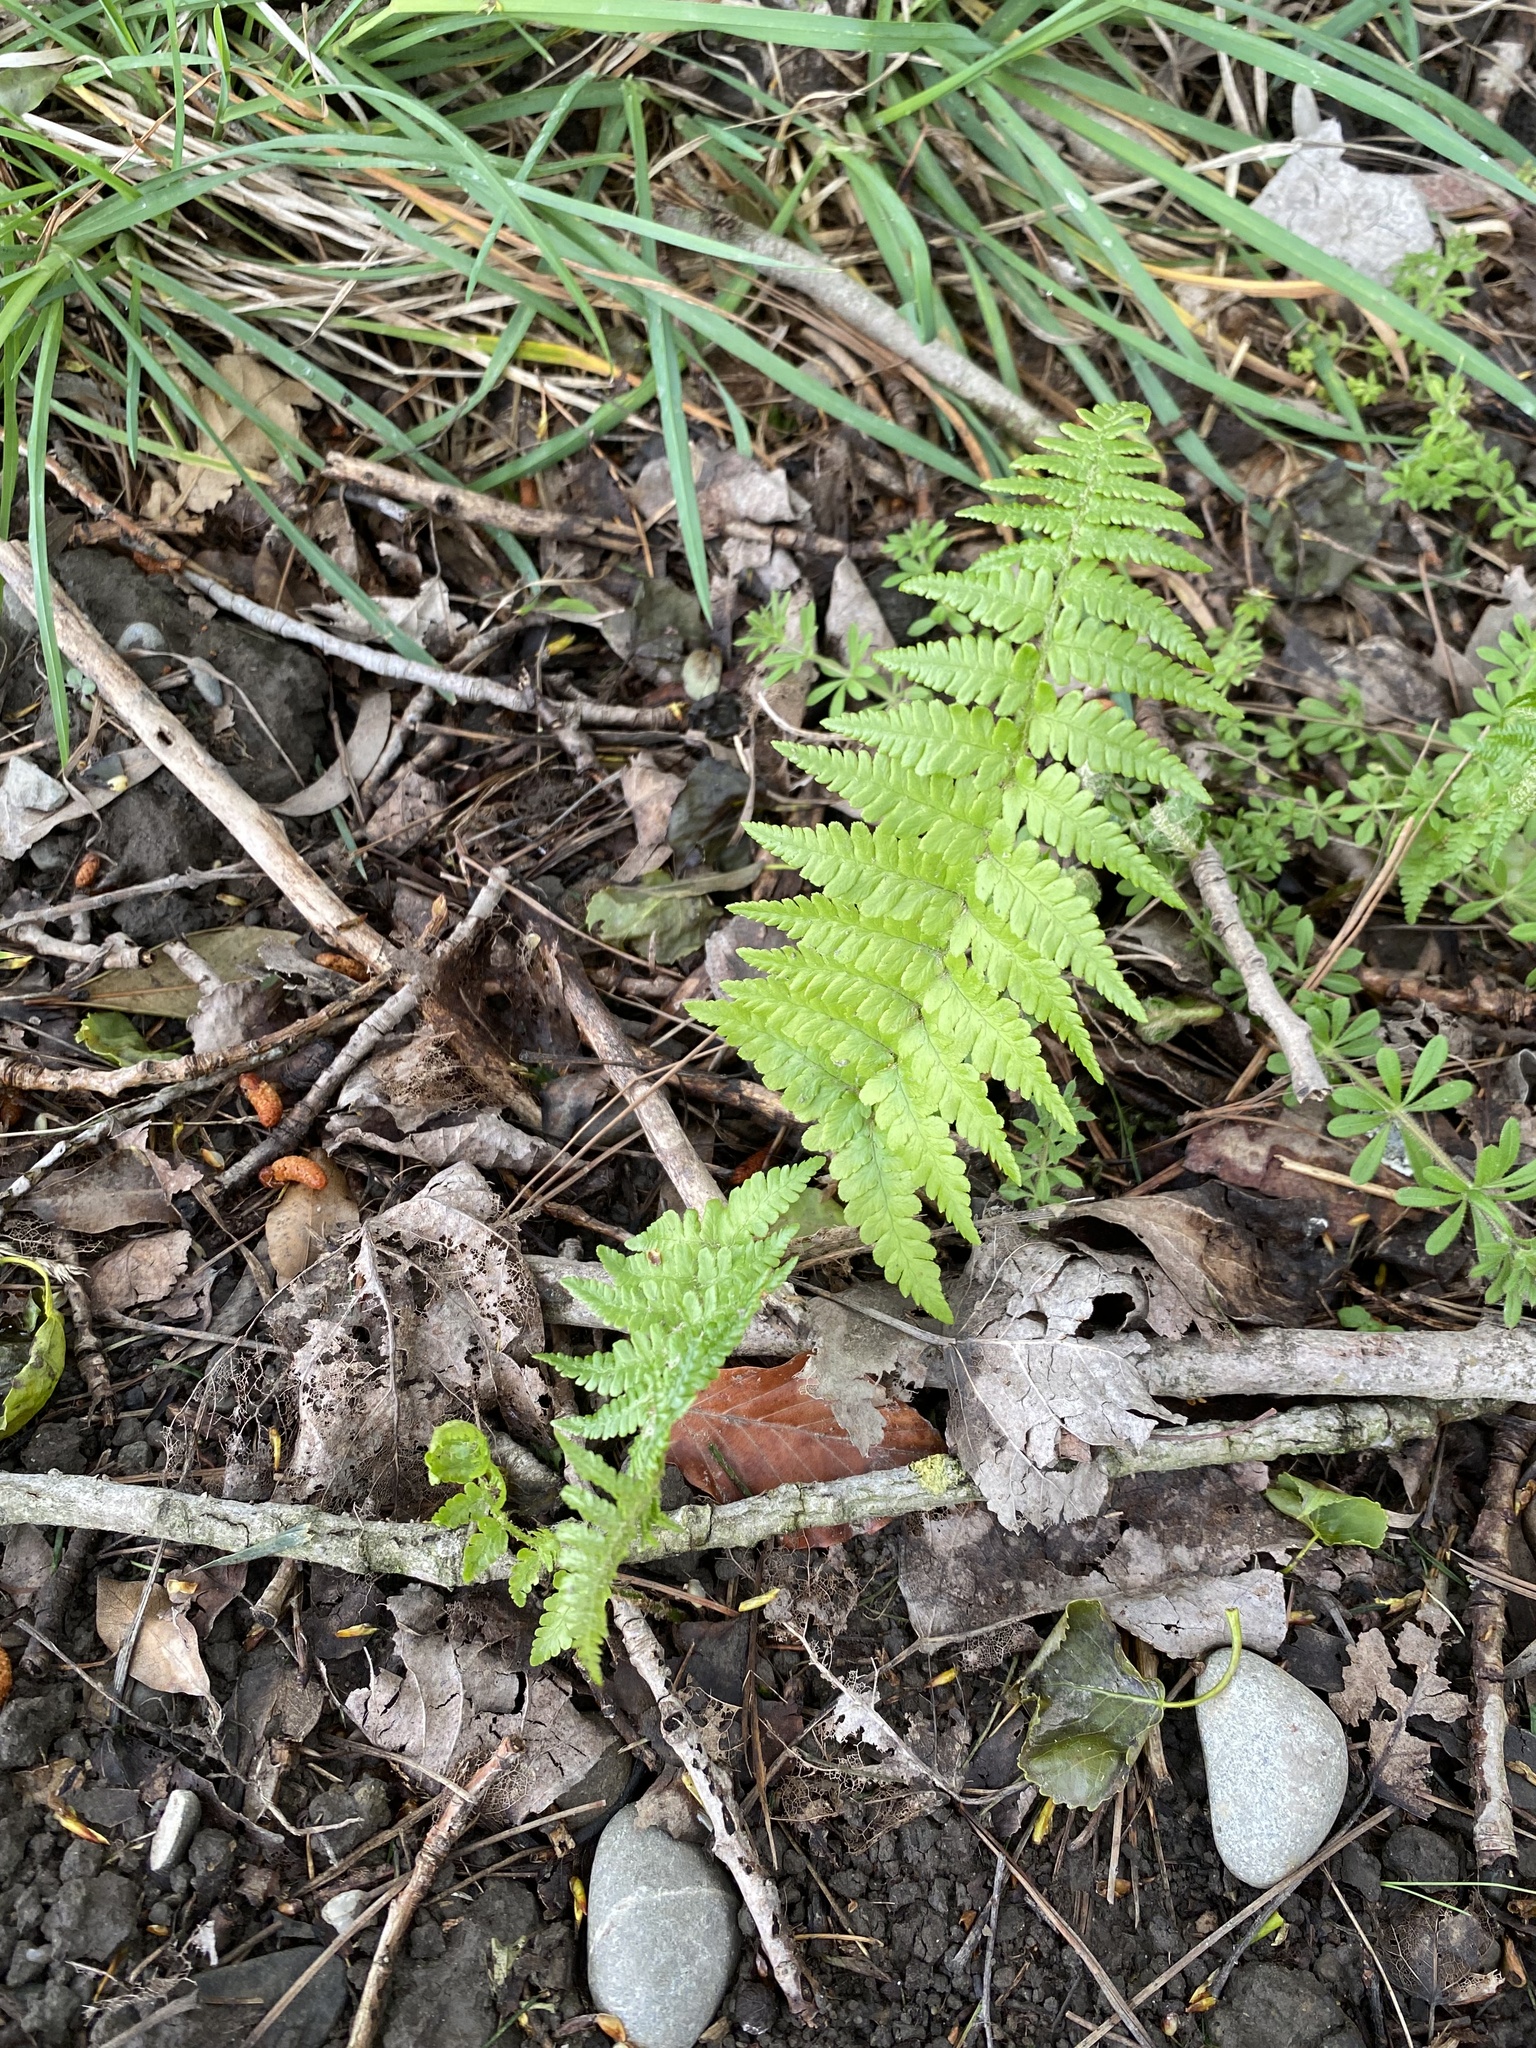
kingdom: Plantae
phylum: Tracheophyta
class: Polypodiopsida
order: Polypodiales
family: Dryopteridaceae
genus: Dryopteris
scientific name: Dryopteris filix-mas
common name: Male fern
